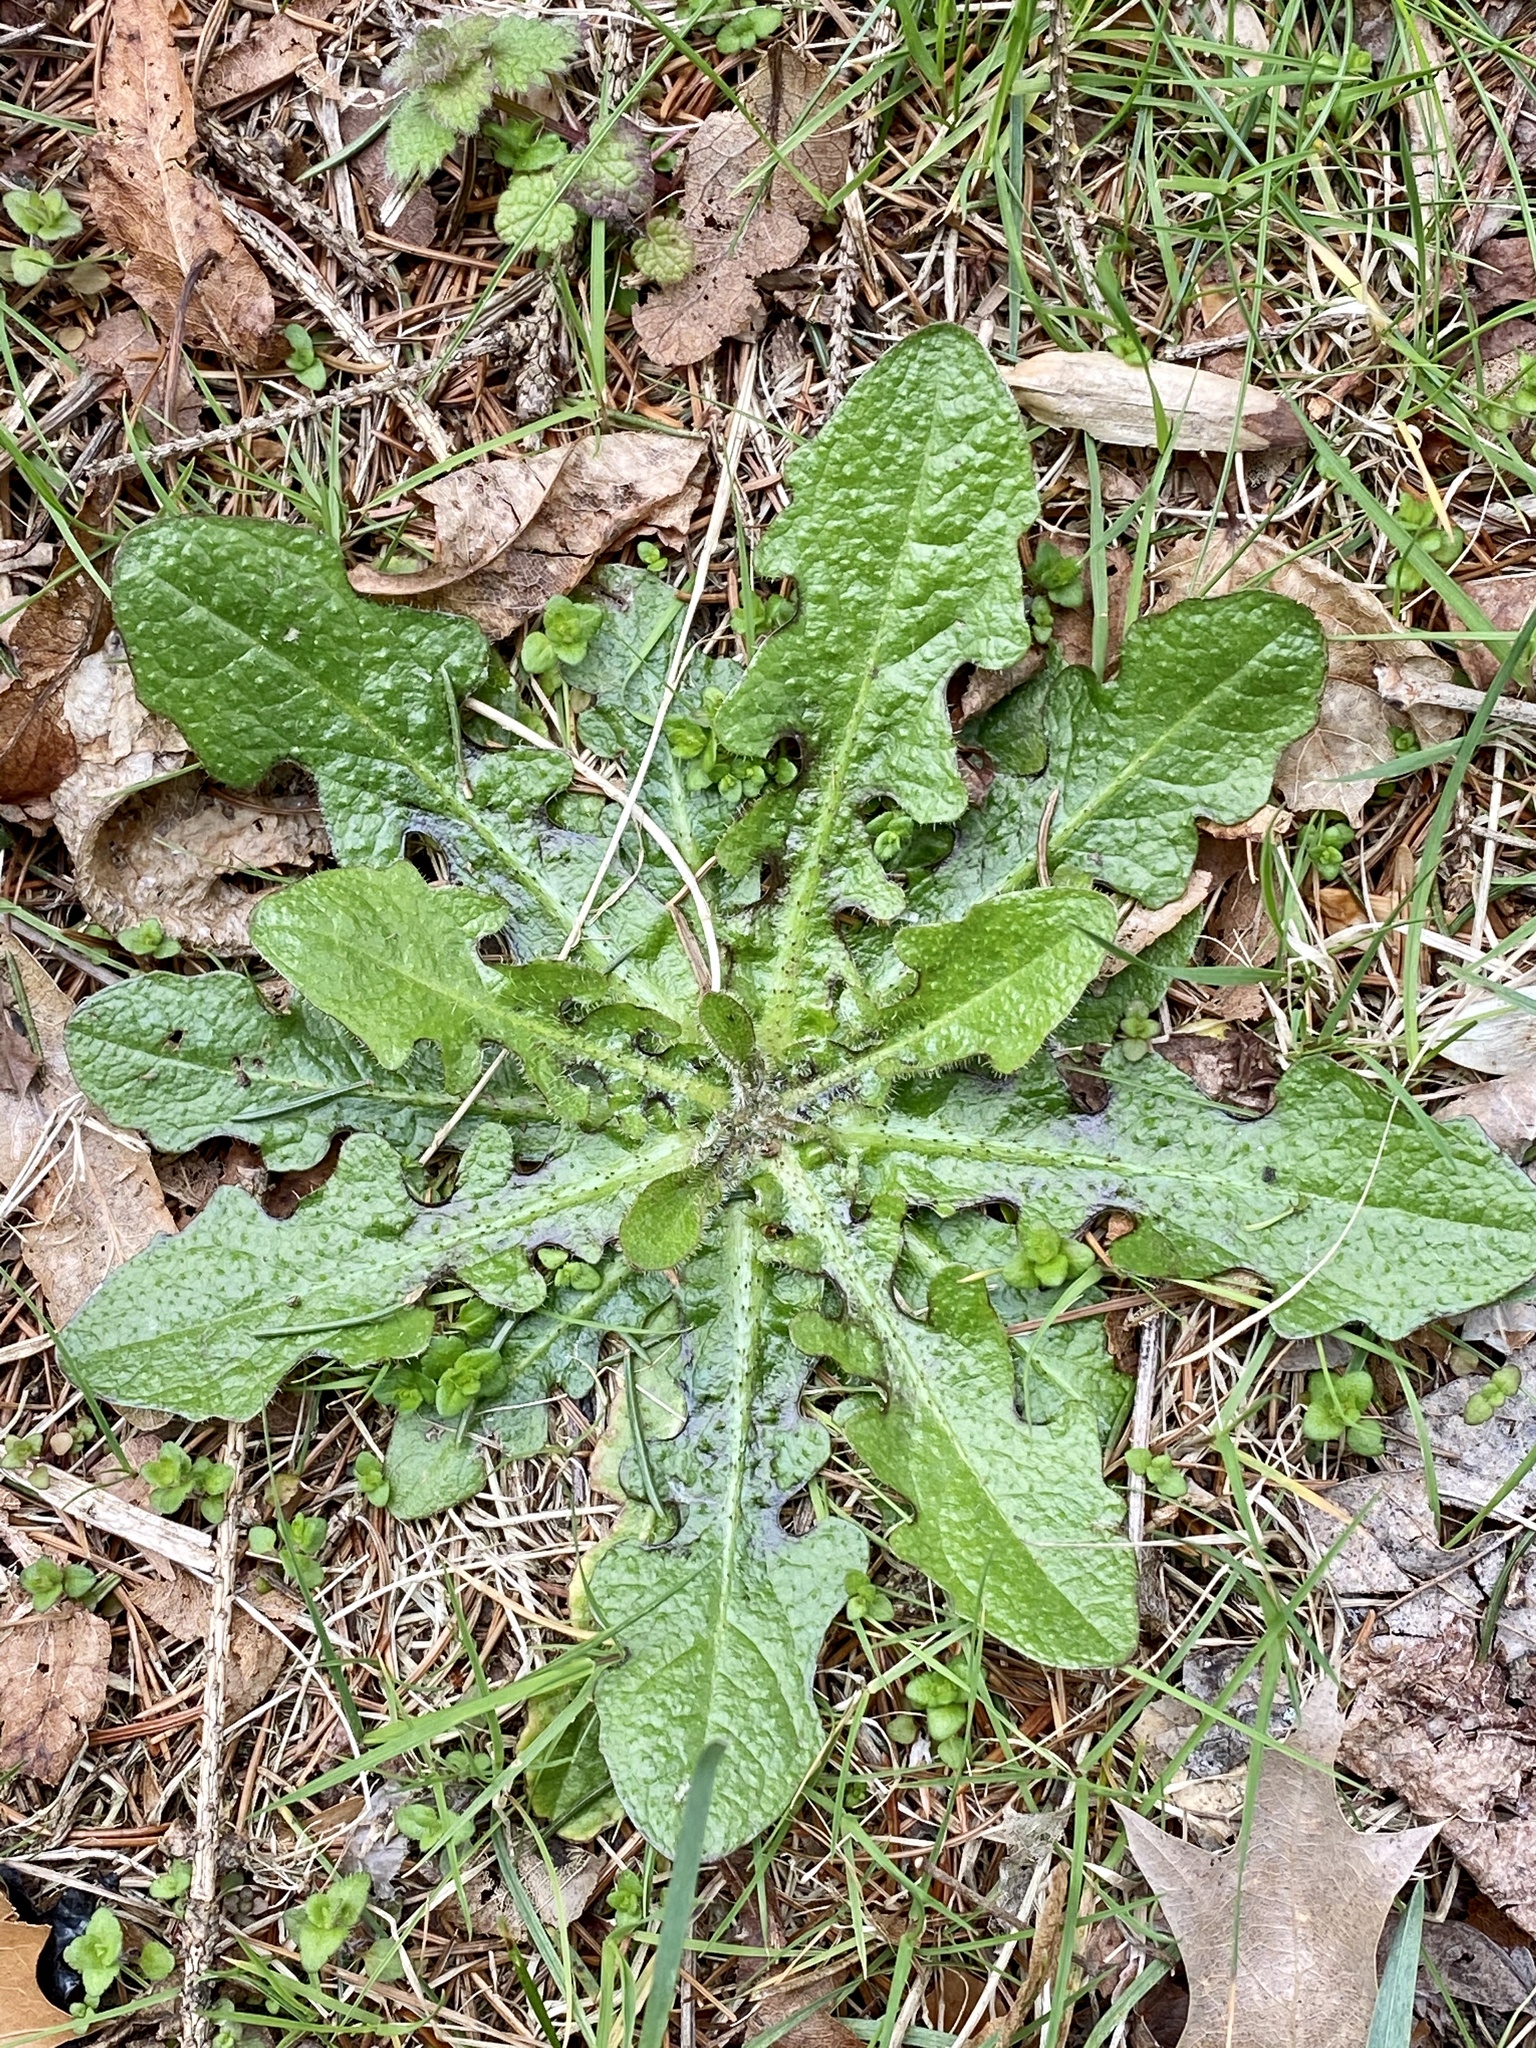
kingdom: Plantae
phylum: Tracheophyta
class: Magnoliopsida
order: Asterales
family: Asteraceae
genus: Hypochaeris
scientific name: Hypochaeris radicata
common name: Flatweed
